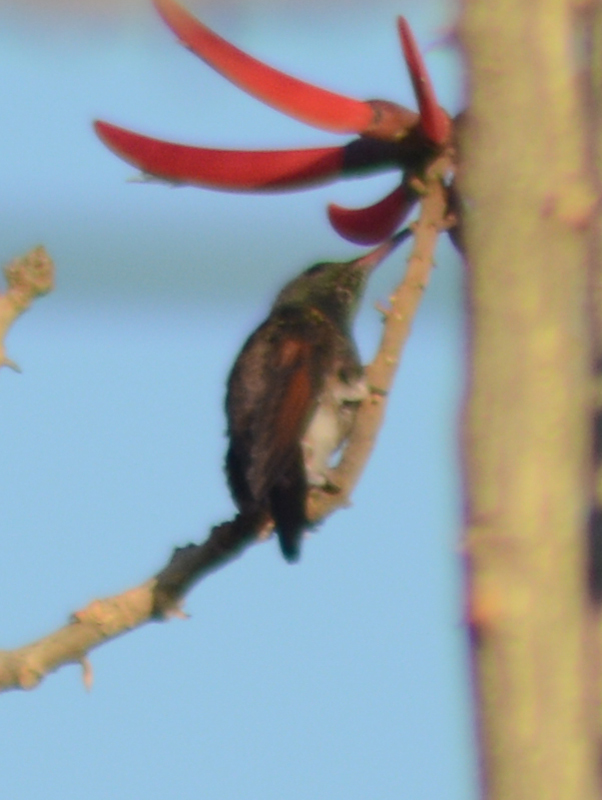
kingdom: Animalia
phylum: Chordata
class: Aves
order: Apodiformes
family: Trochilidae
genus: Saucerottia
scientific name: Saucerottia beryllina
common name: Berylline hummingbird
